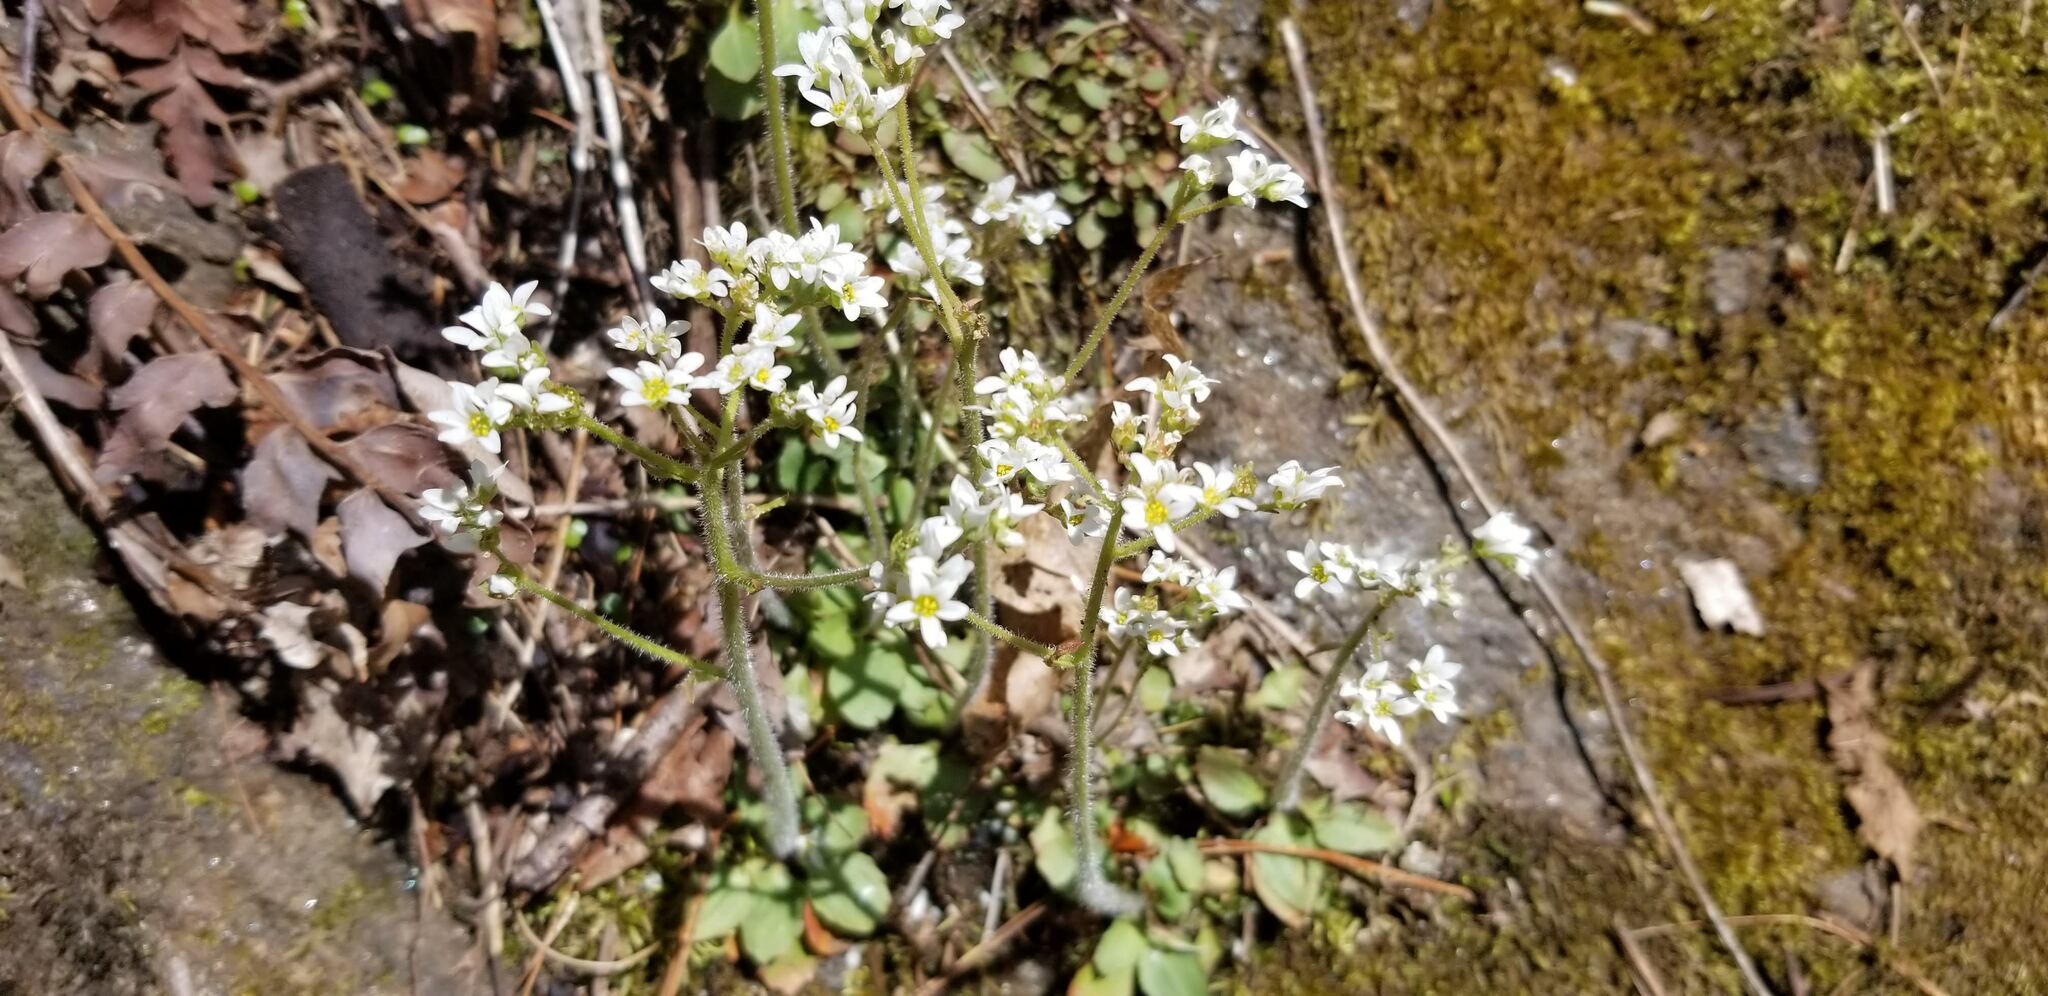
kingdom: Plantae
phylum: Tracheophyta
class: Magnoliopsida
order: Saxifragales
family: Saxifragaceae
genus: Micranthes
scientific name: Micranthes virginiensis
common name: Early saxifrage
